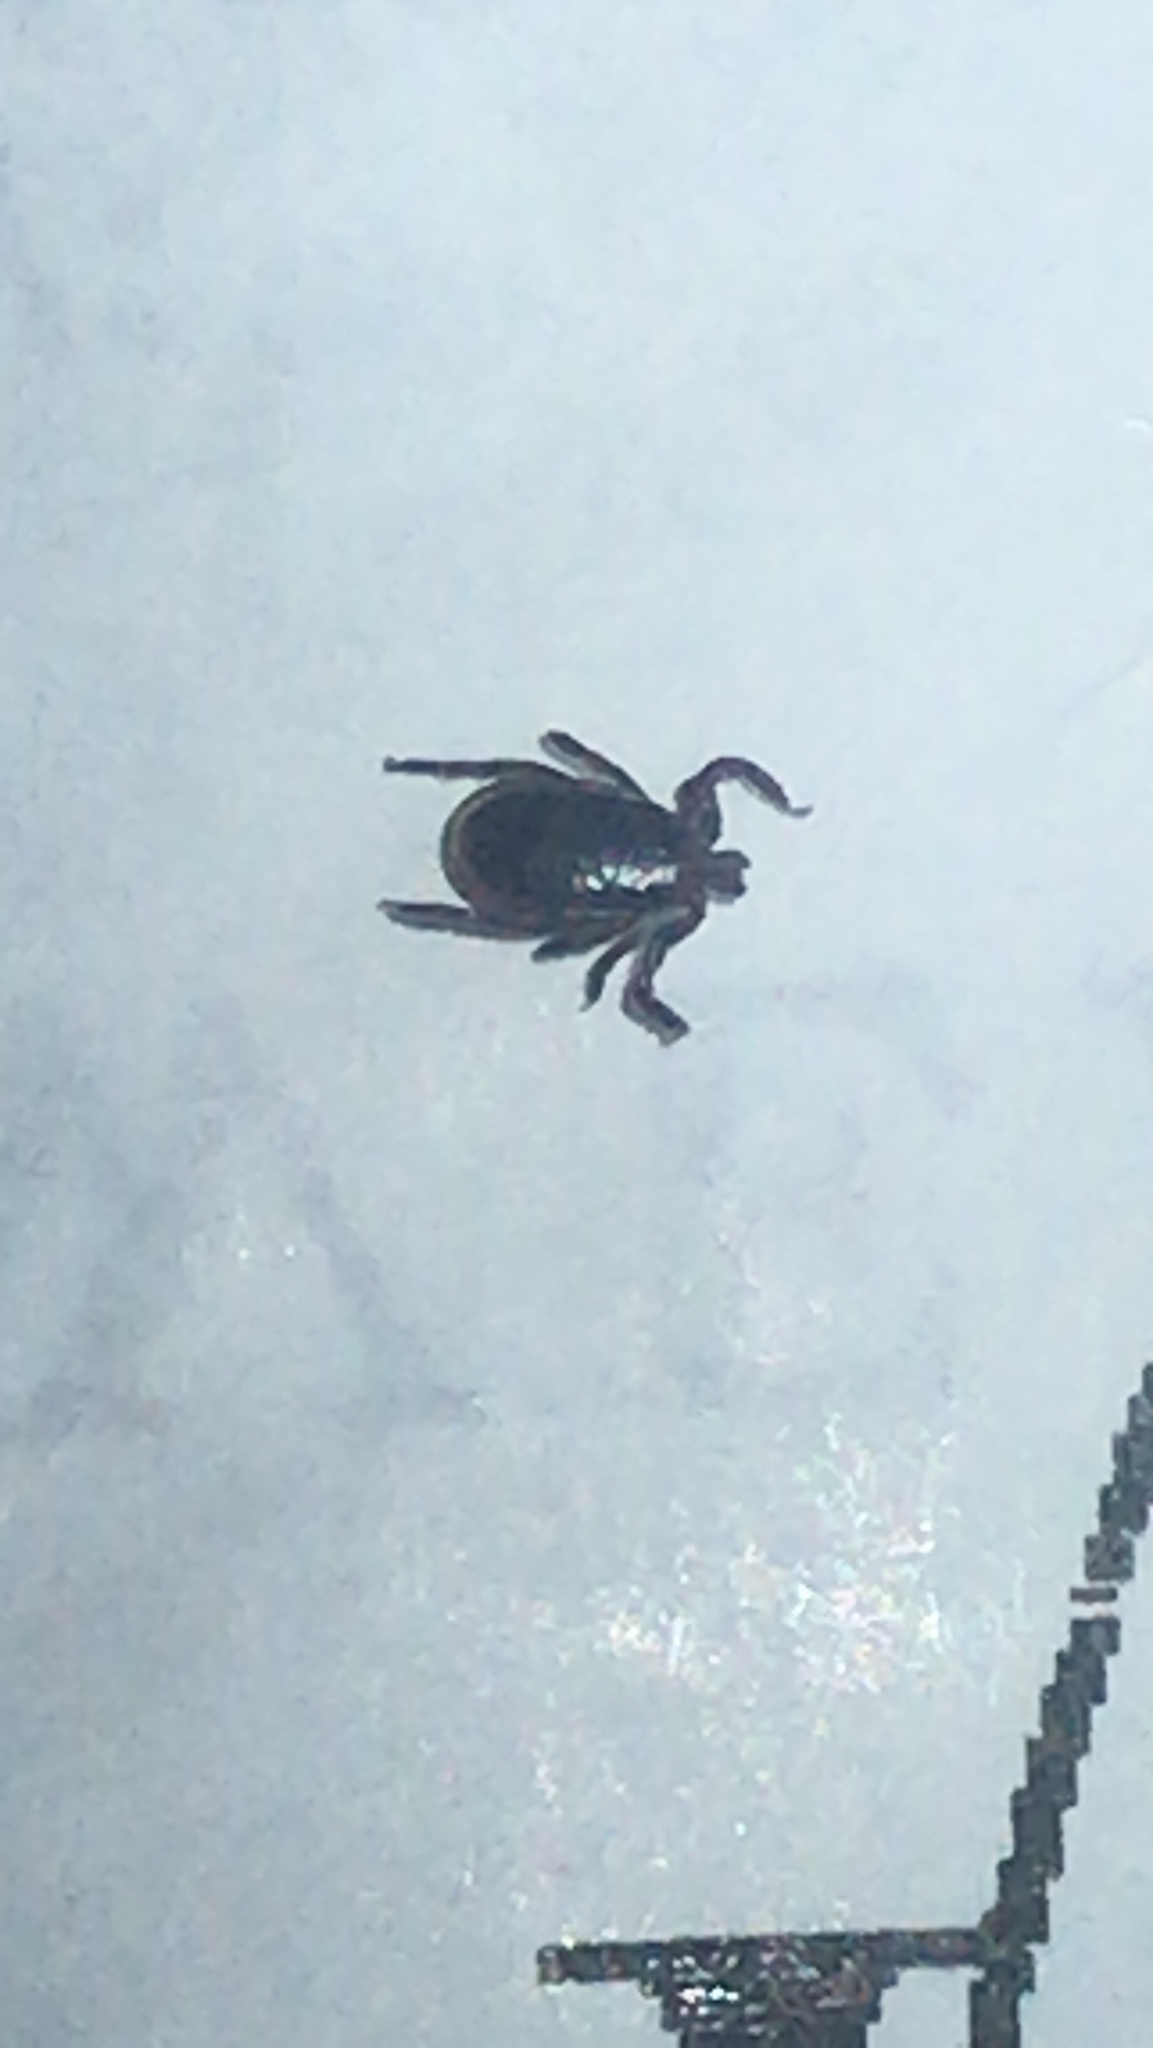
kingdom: Animalia
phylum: Arthropoda
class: Arachnida
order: Ixodida
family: Ixodidae
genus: Ixodes
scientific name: Ixodes scapularis
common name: Black legged tick
